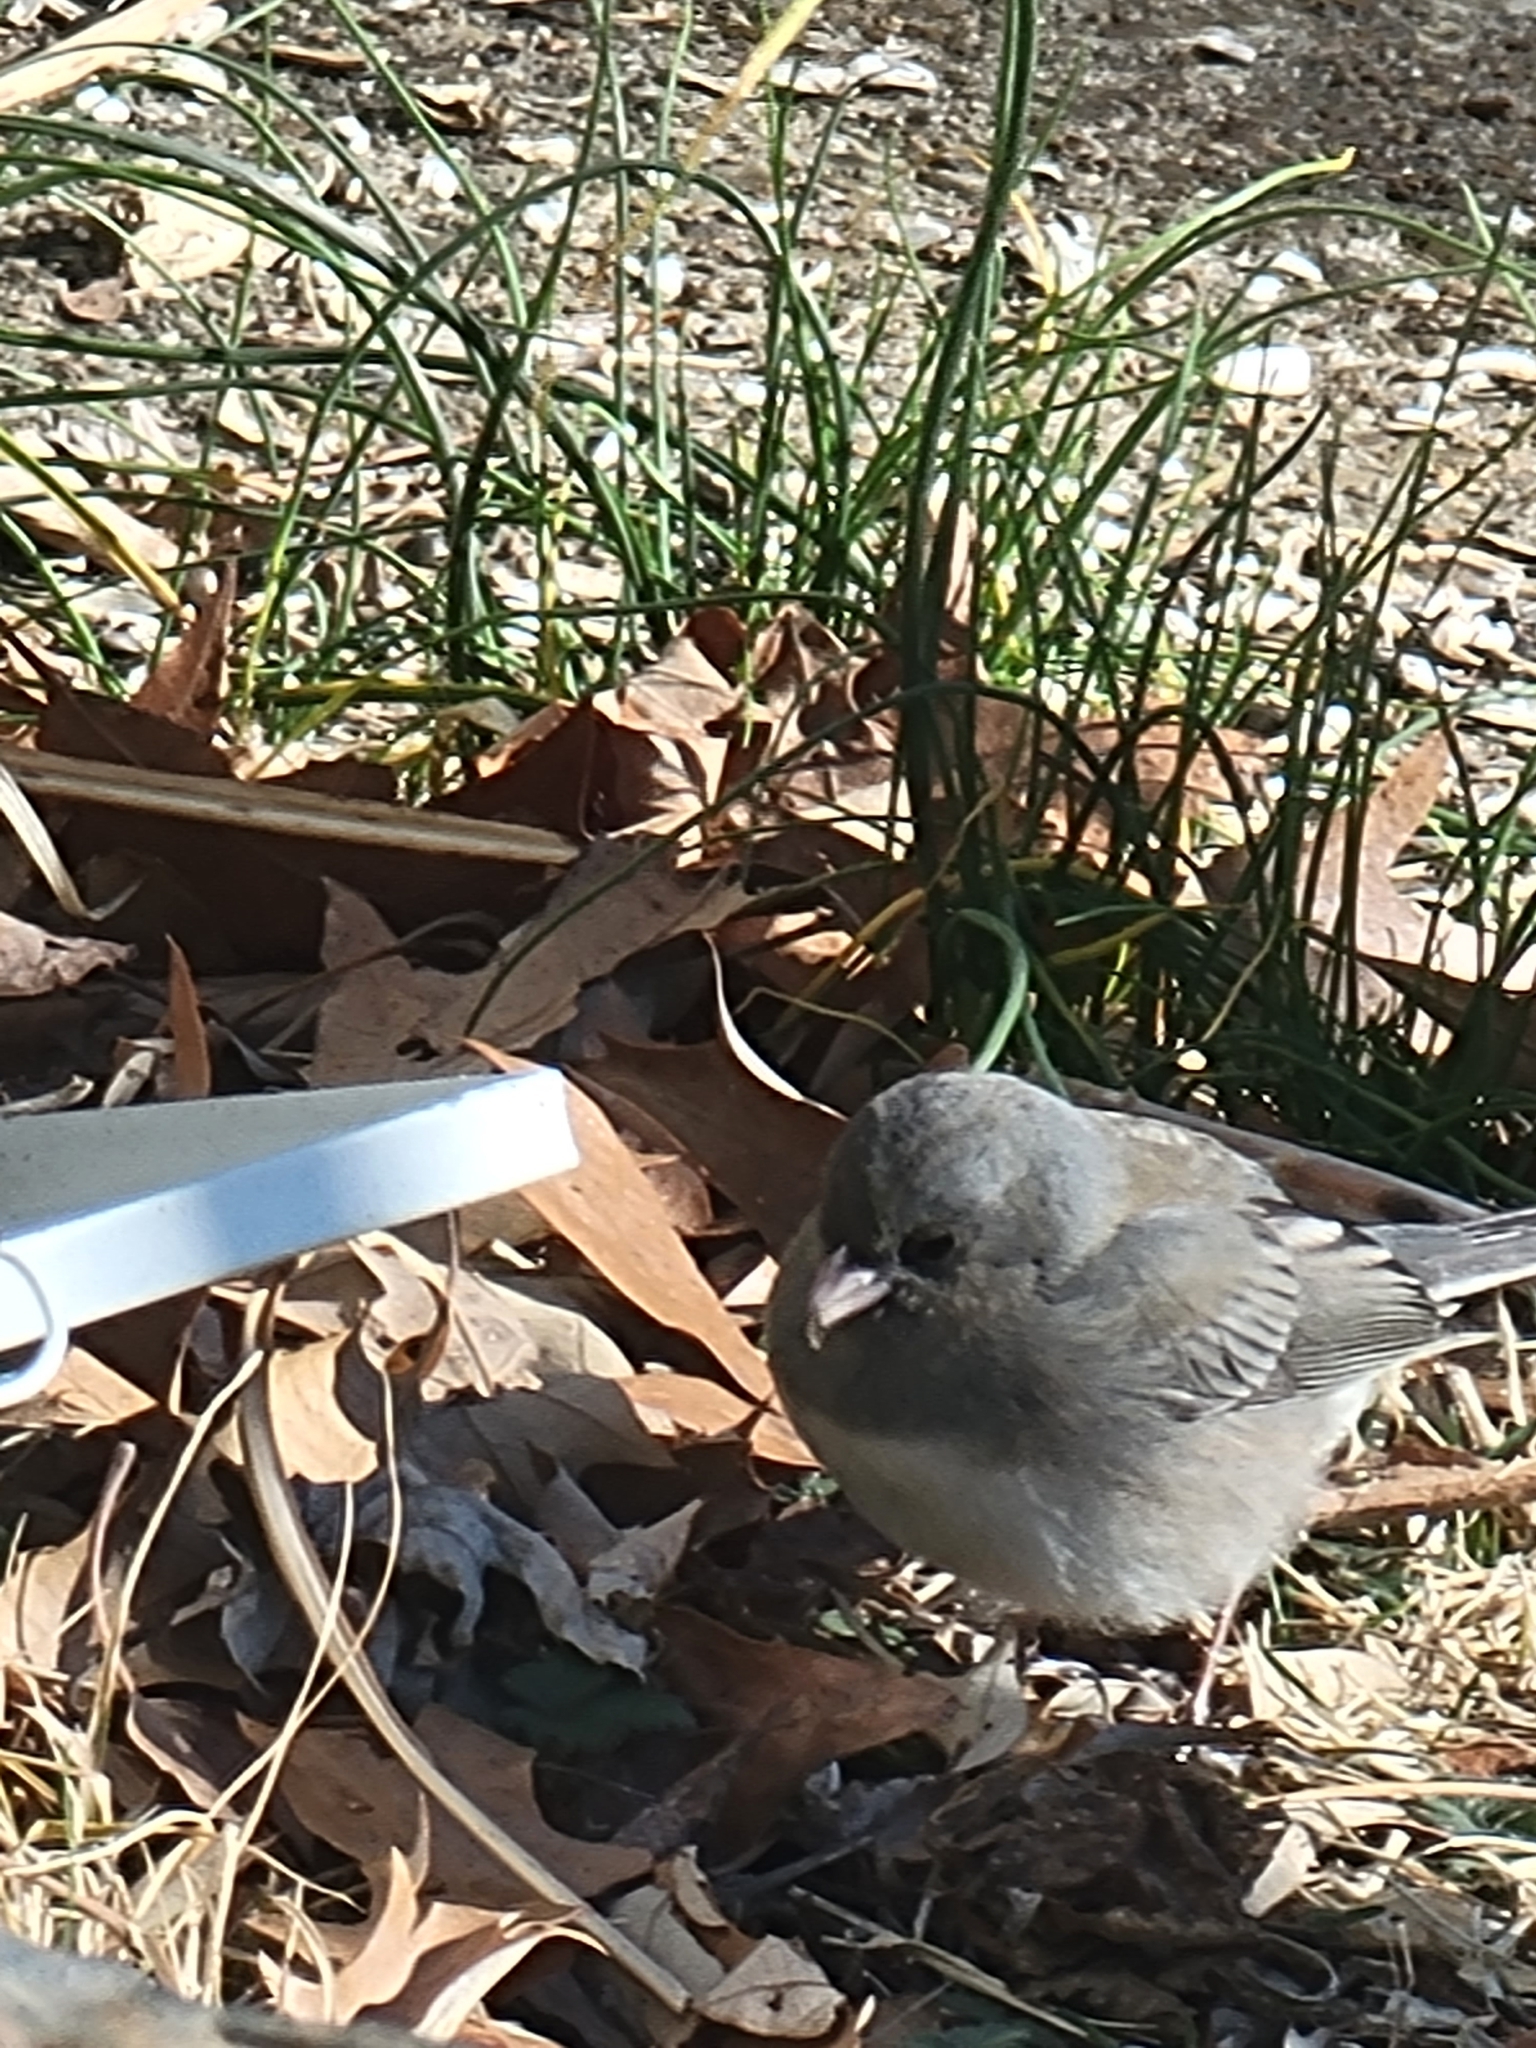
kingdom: Animalia
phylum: Chordata
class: Aves
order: Passeriformes
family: Passerellidae
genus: Junco
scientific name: Junco hyemalis
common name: Dark-eyed junco
